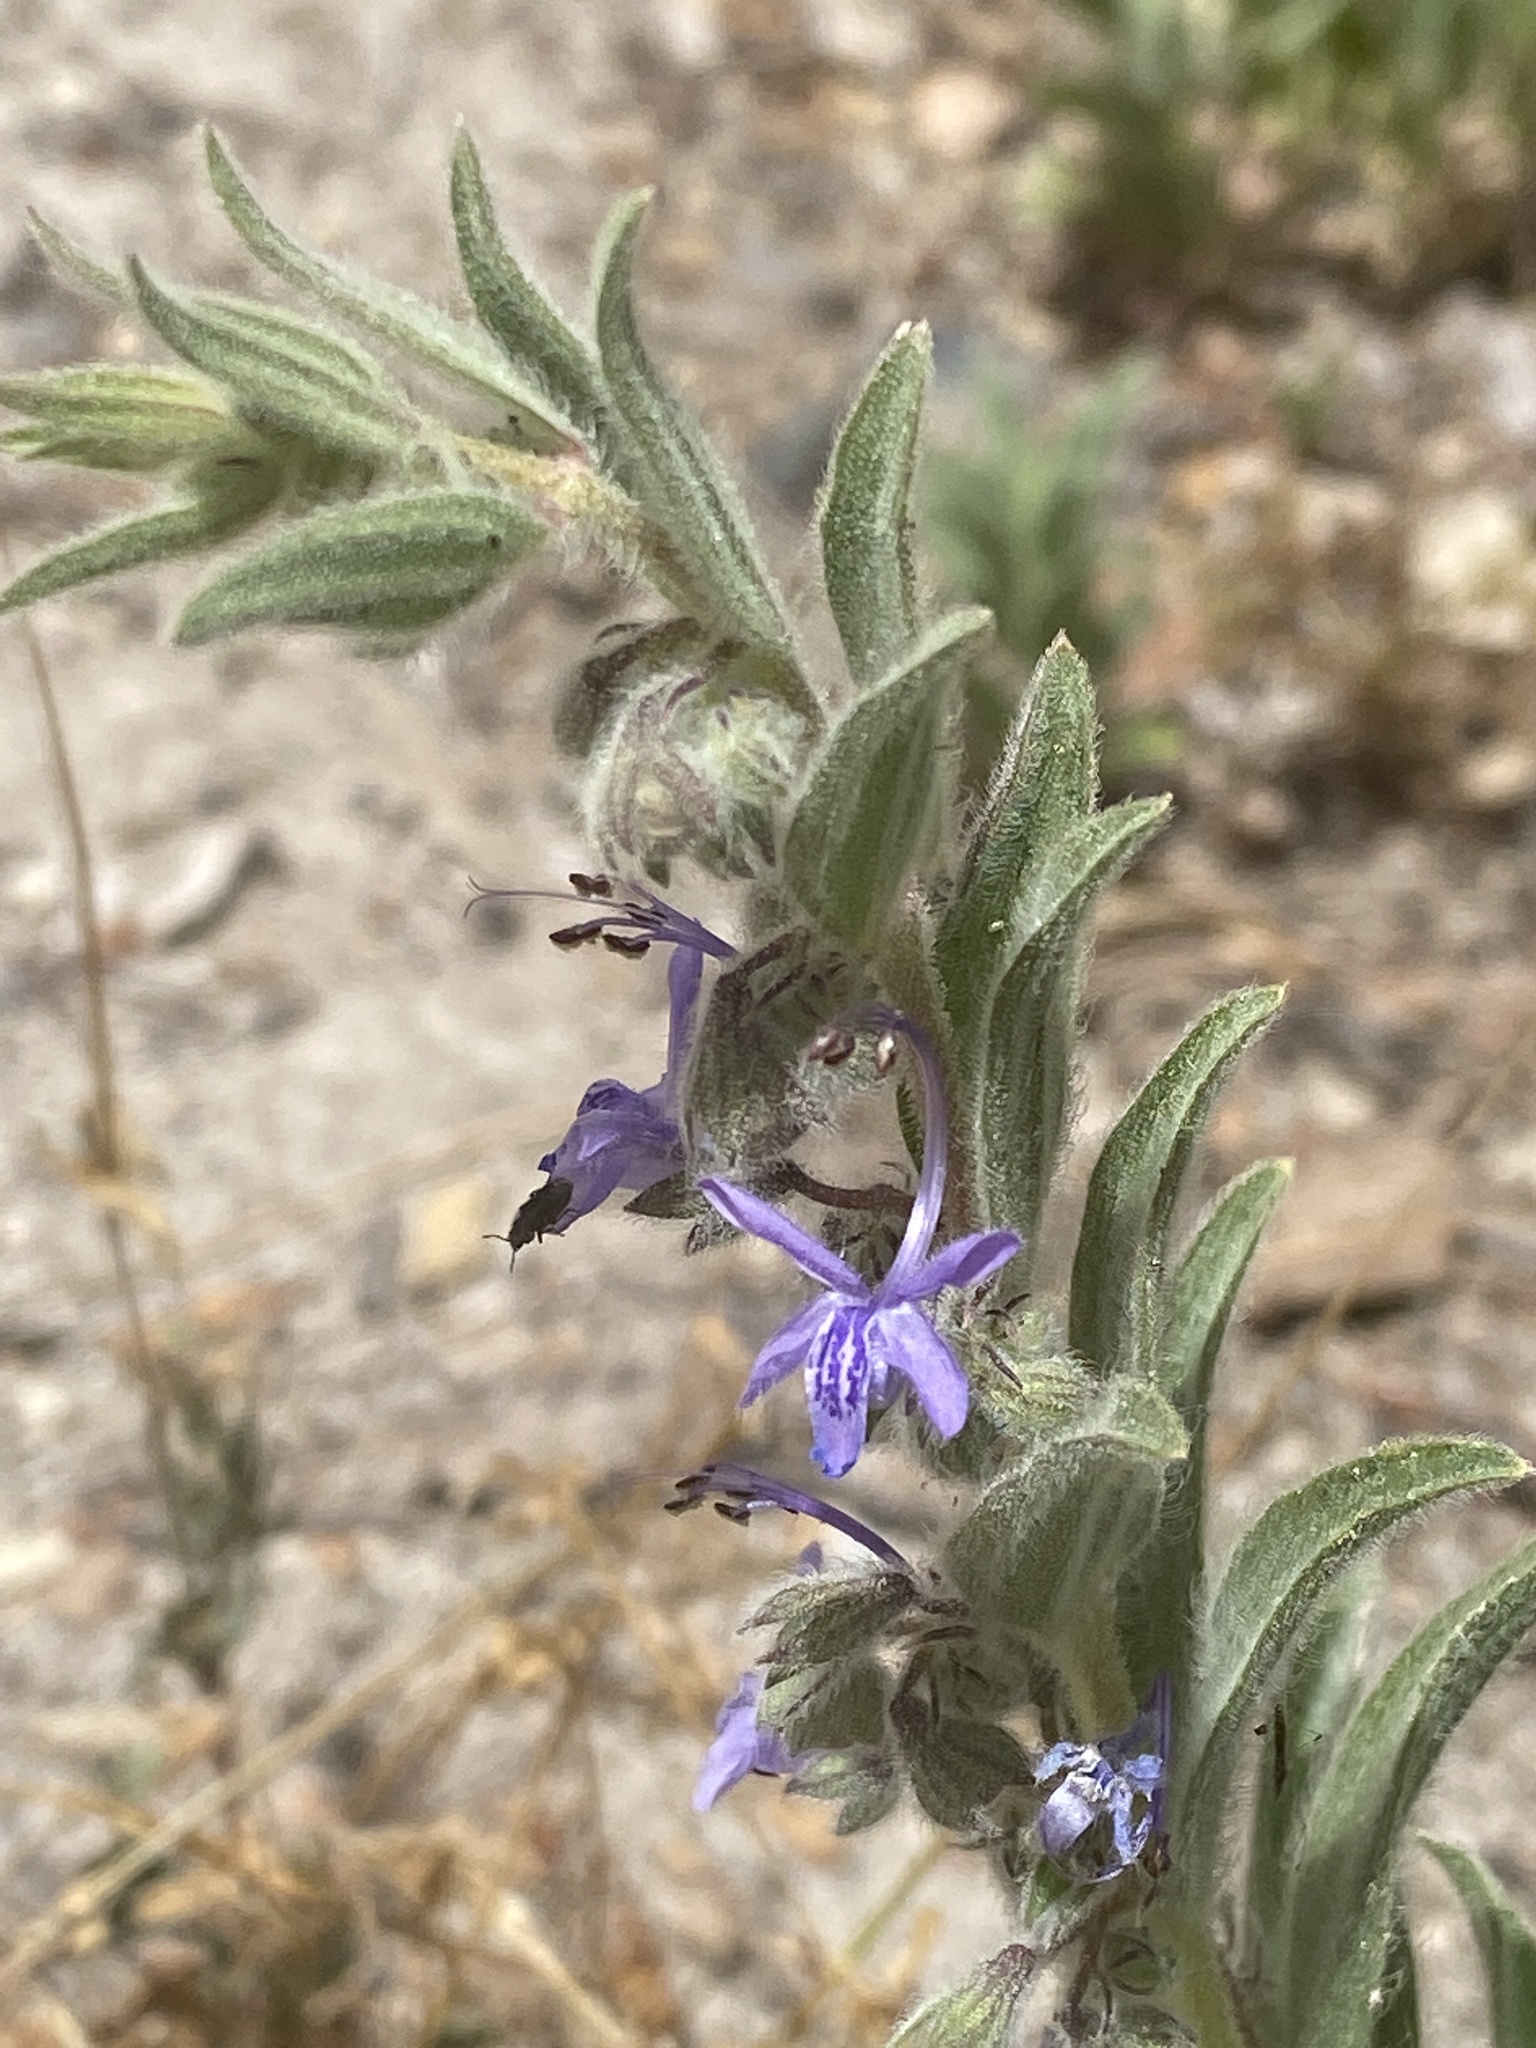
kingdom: Plantae
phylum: Tracheophyta
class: Magnoliopsida
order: Lamiales
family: Lamiaceae
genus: Trichostema
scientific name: Trichostema lanceolatum
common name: Vinegar-weed
